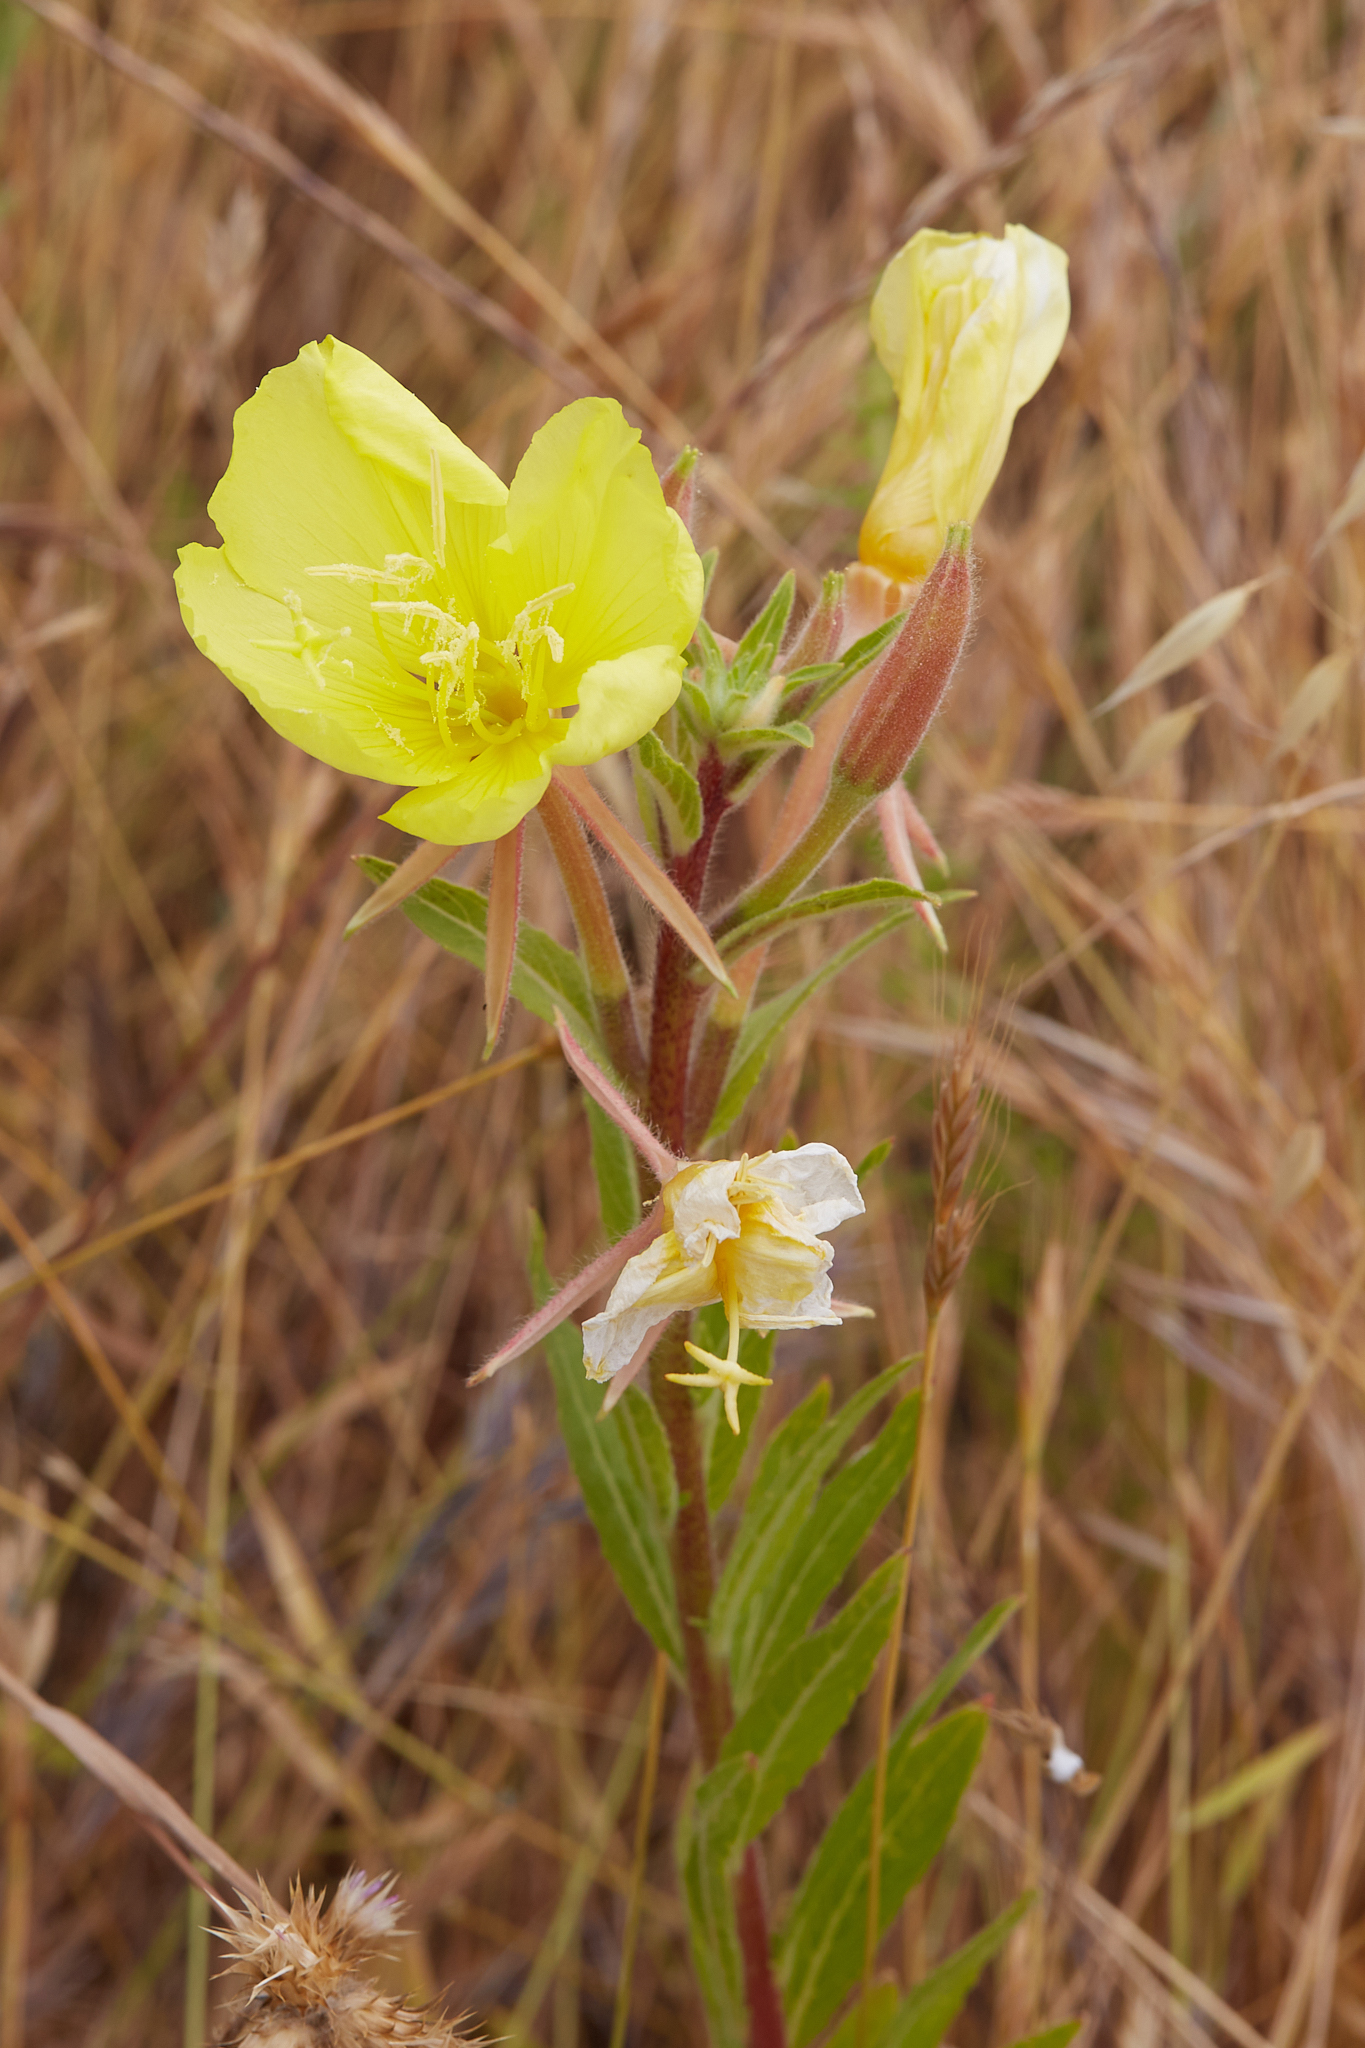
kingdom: Plantae
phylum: Tracheophyta
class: Magnoliopsida
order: Myrtales
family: Onagraceae
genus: Oenothera
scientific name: Oenothera elata
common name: Hooker's evening-primrose
